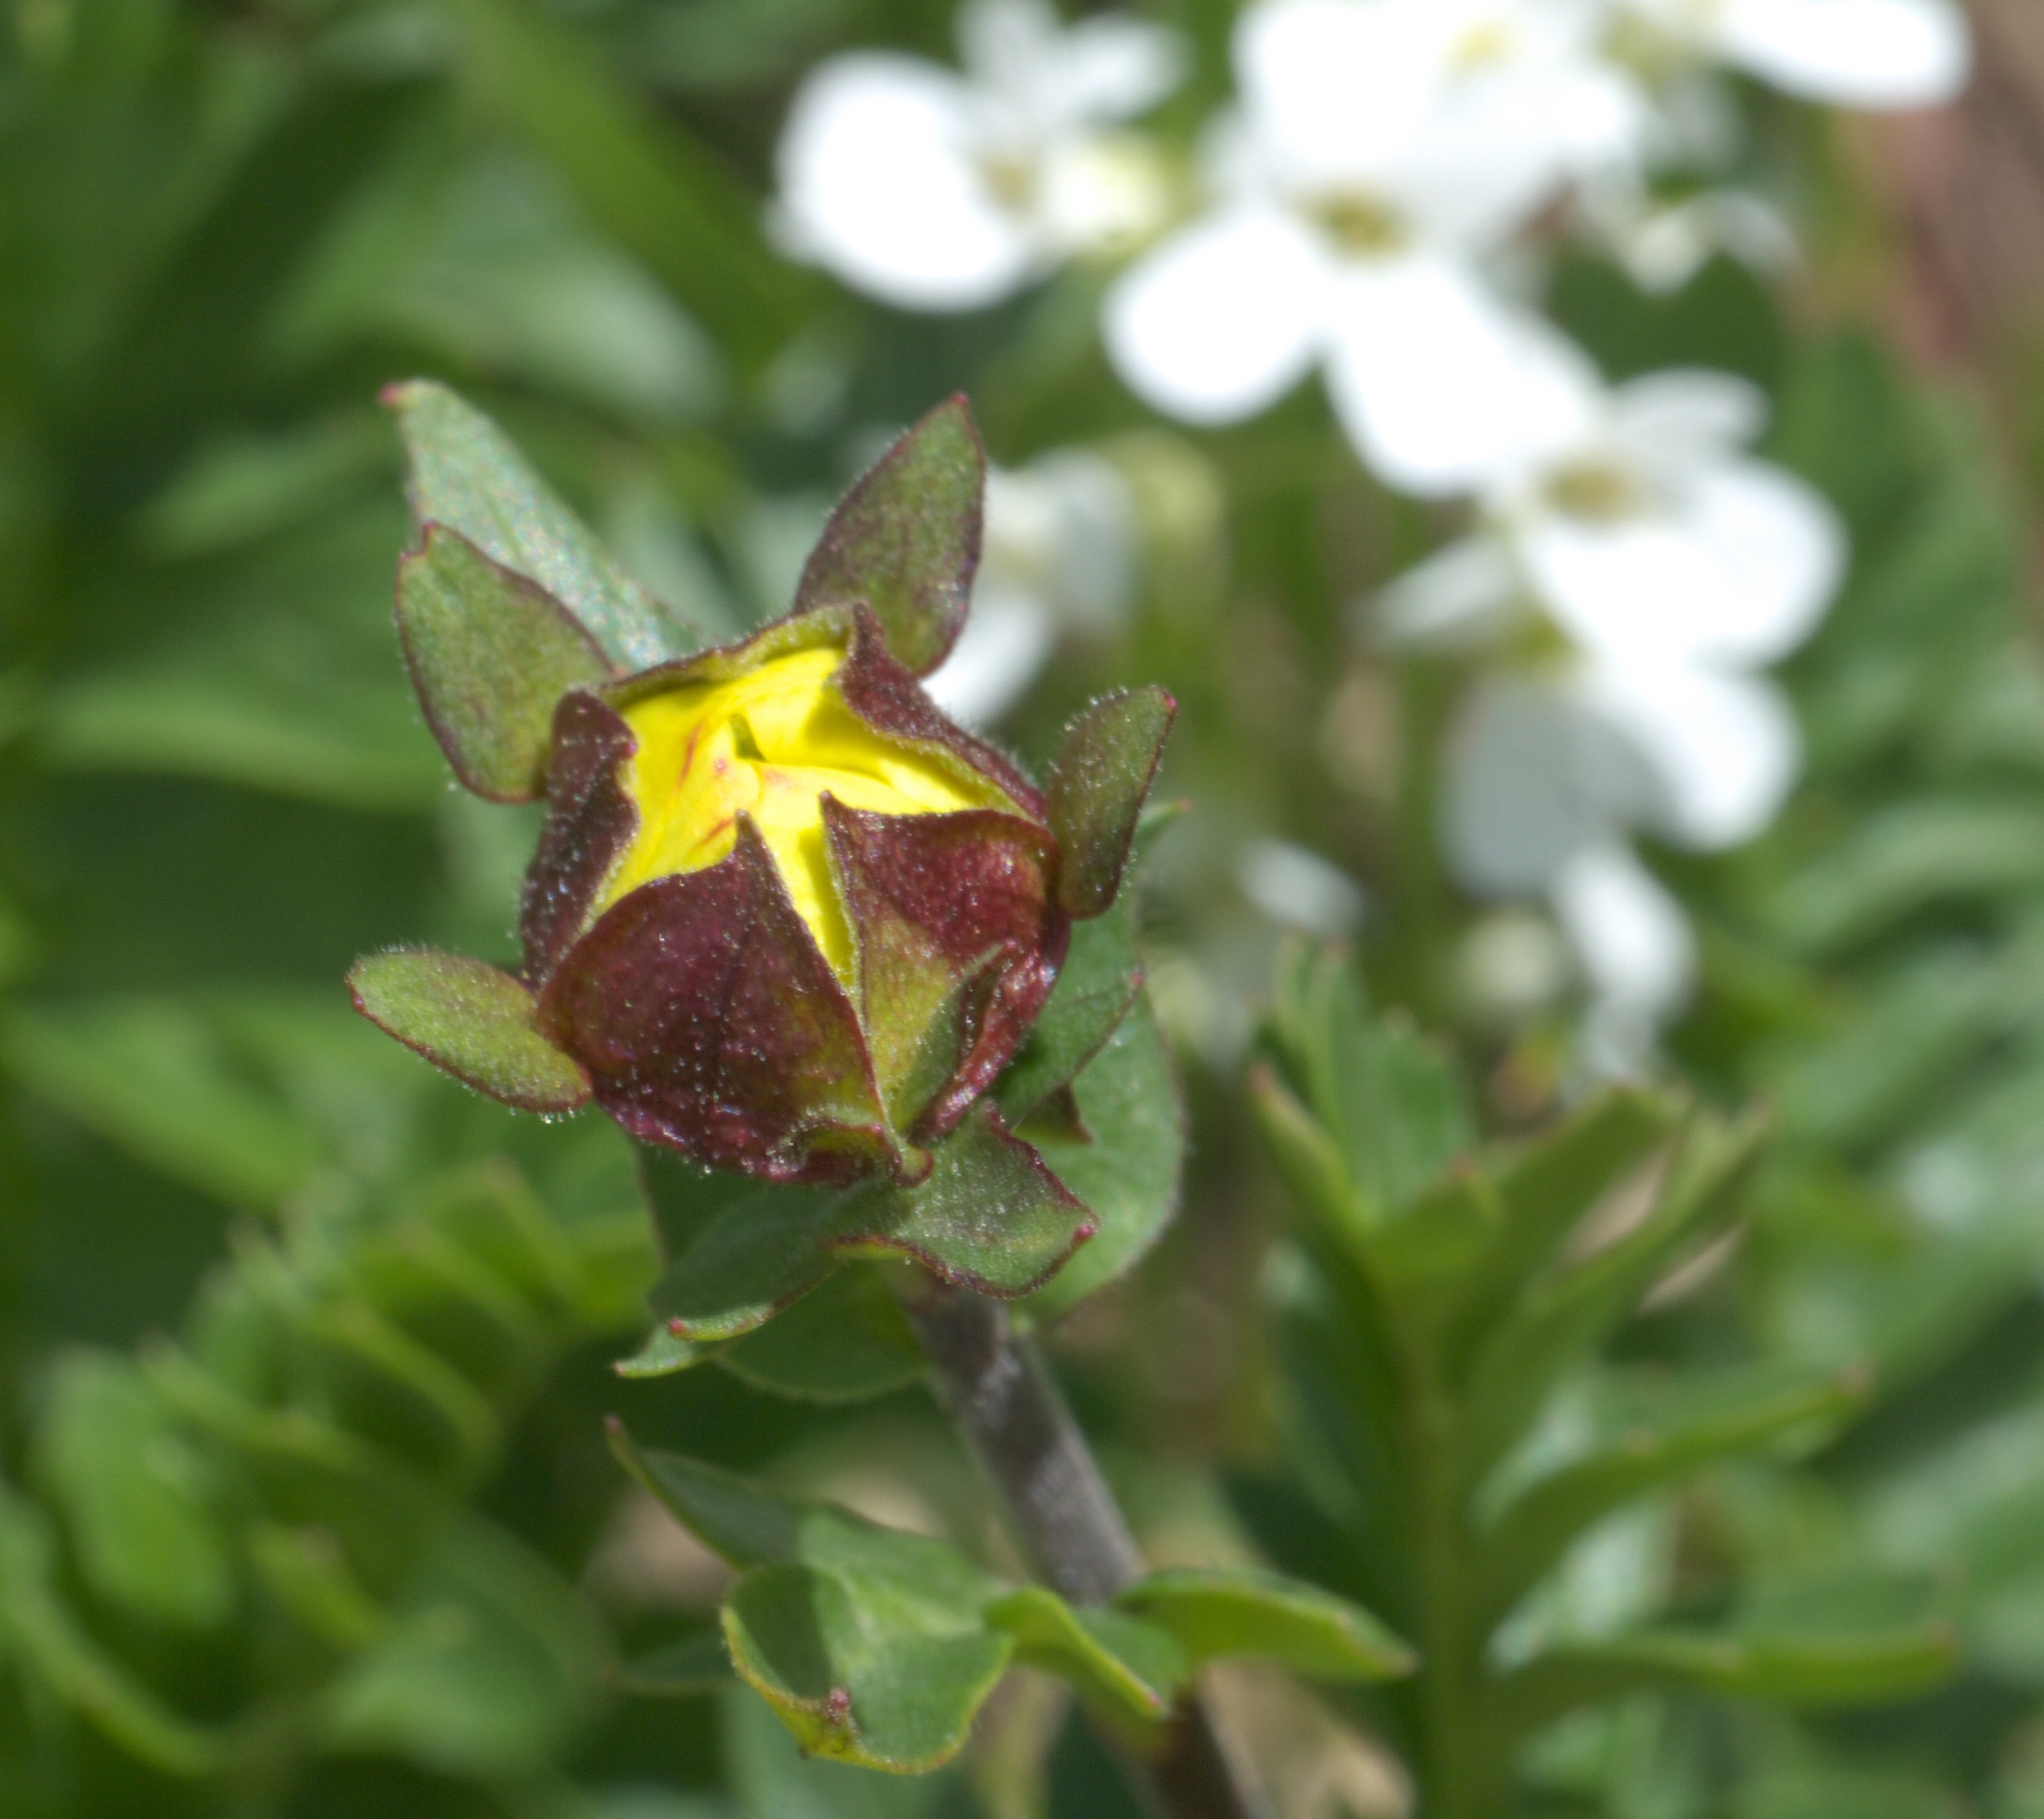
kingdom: Plantae
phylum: Tracheophyta
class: Magnoliopsida
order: Rosales
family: Rosaceae
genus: Geum
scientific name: Geum rossii
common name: Alpine avens
